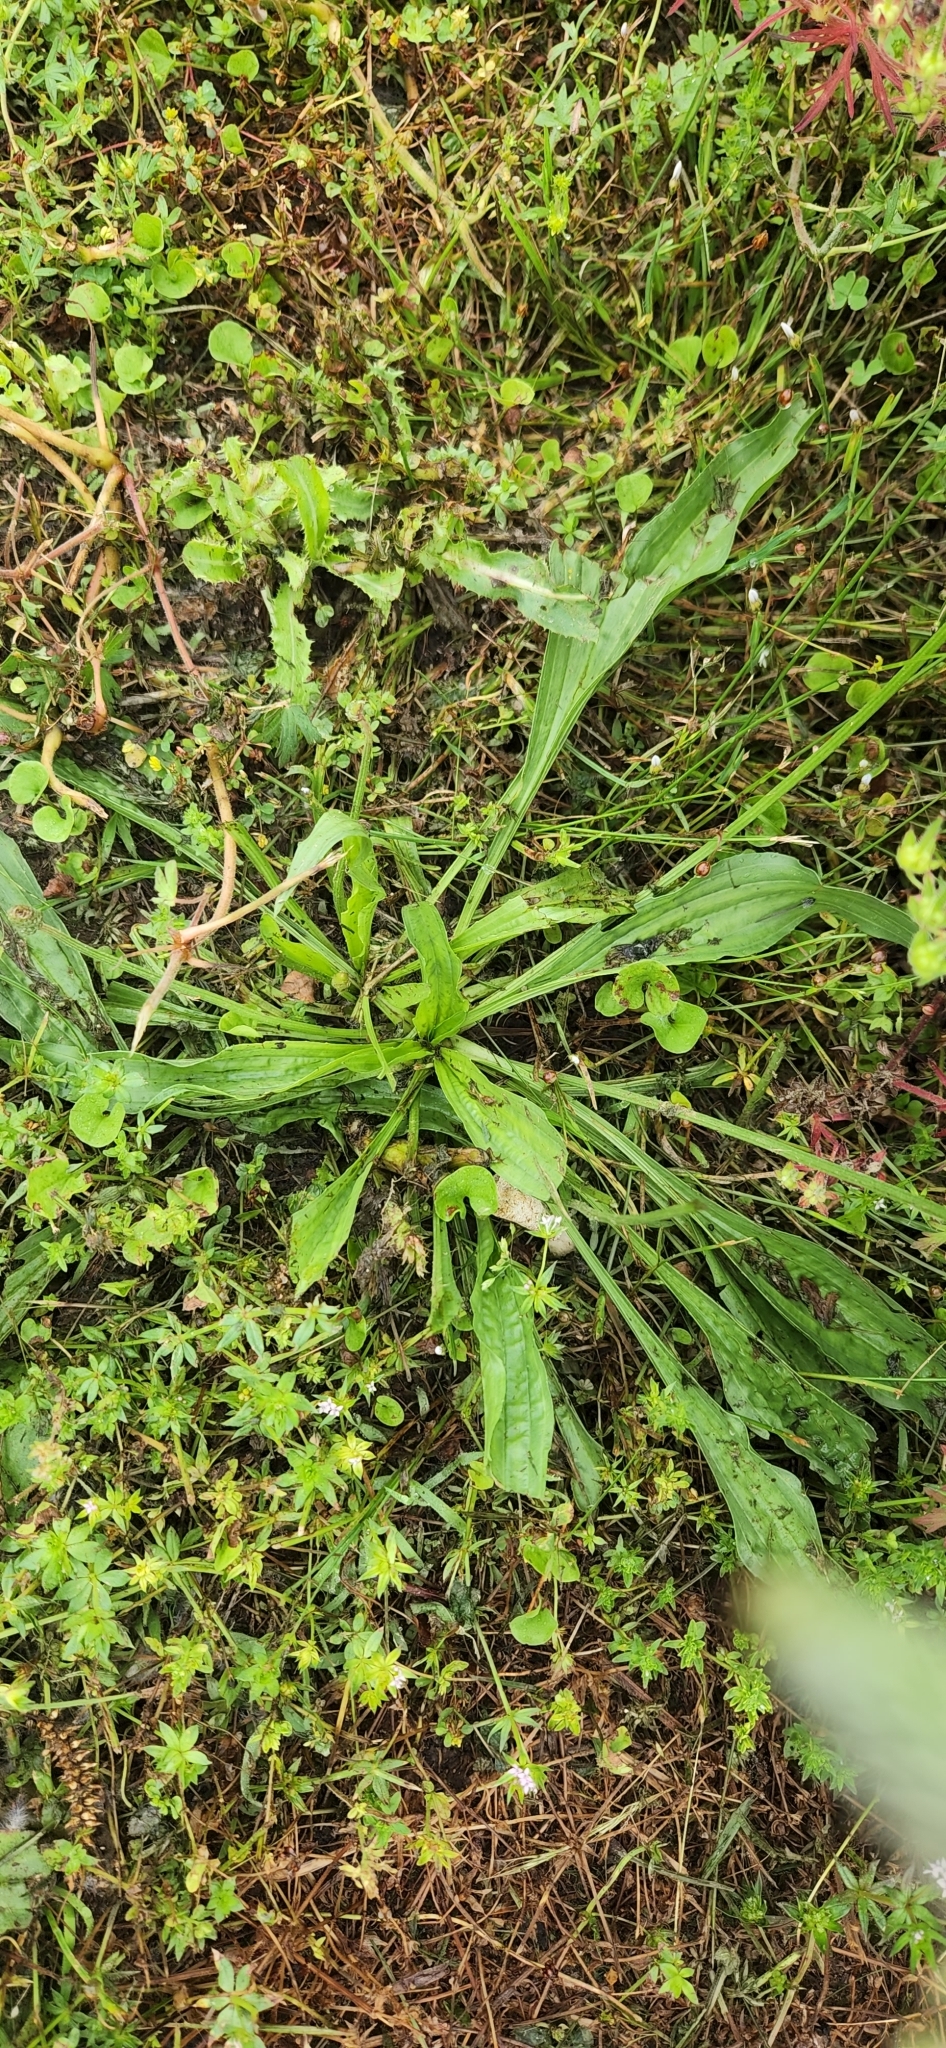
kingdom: Plantae
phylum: Tracheophyta
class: Magnoliopsida
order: Lamiales
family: Plantaginaceae
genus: Plantago
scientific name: Plantago lanceolata
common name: Ribwort plantain
